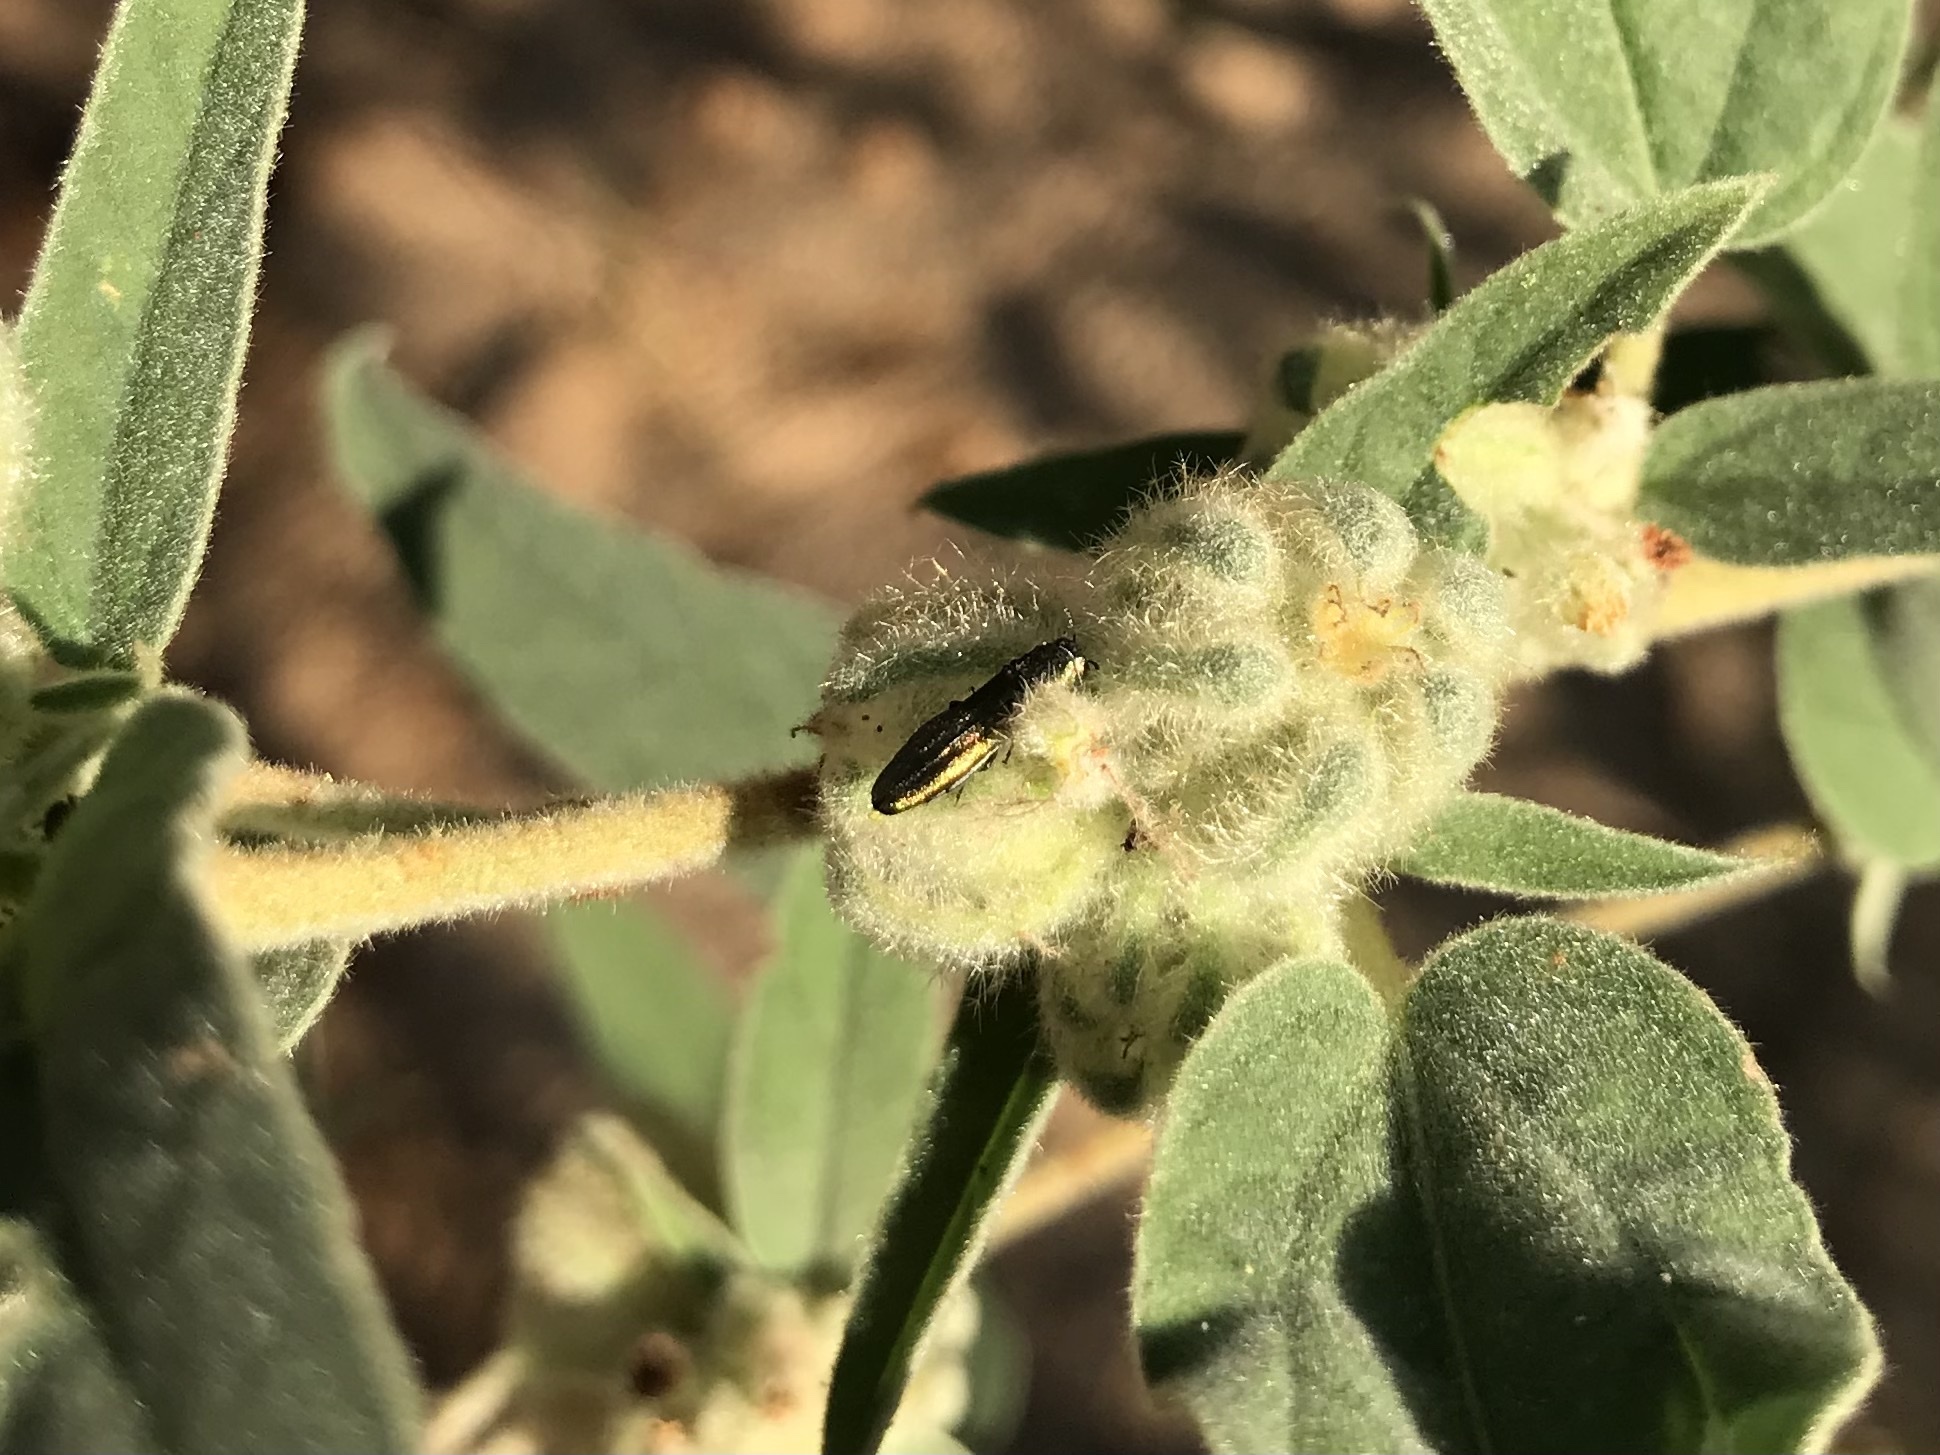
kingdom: Animalia
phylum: Arthropoda
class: Insecta
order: Coleoptera
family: Buprestidae
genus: Agrilus
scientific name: Agrilus lacustris
